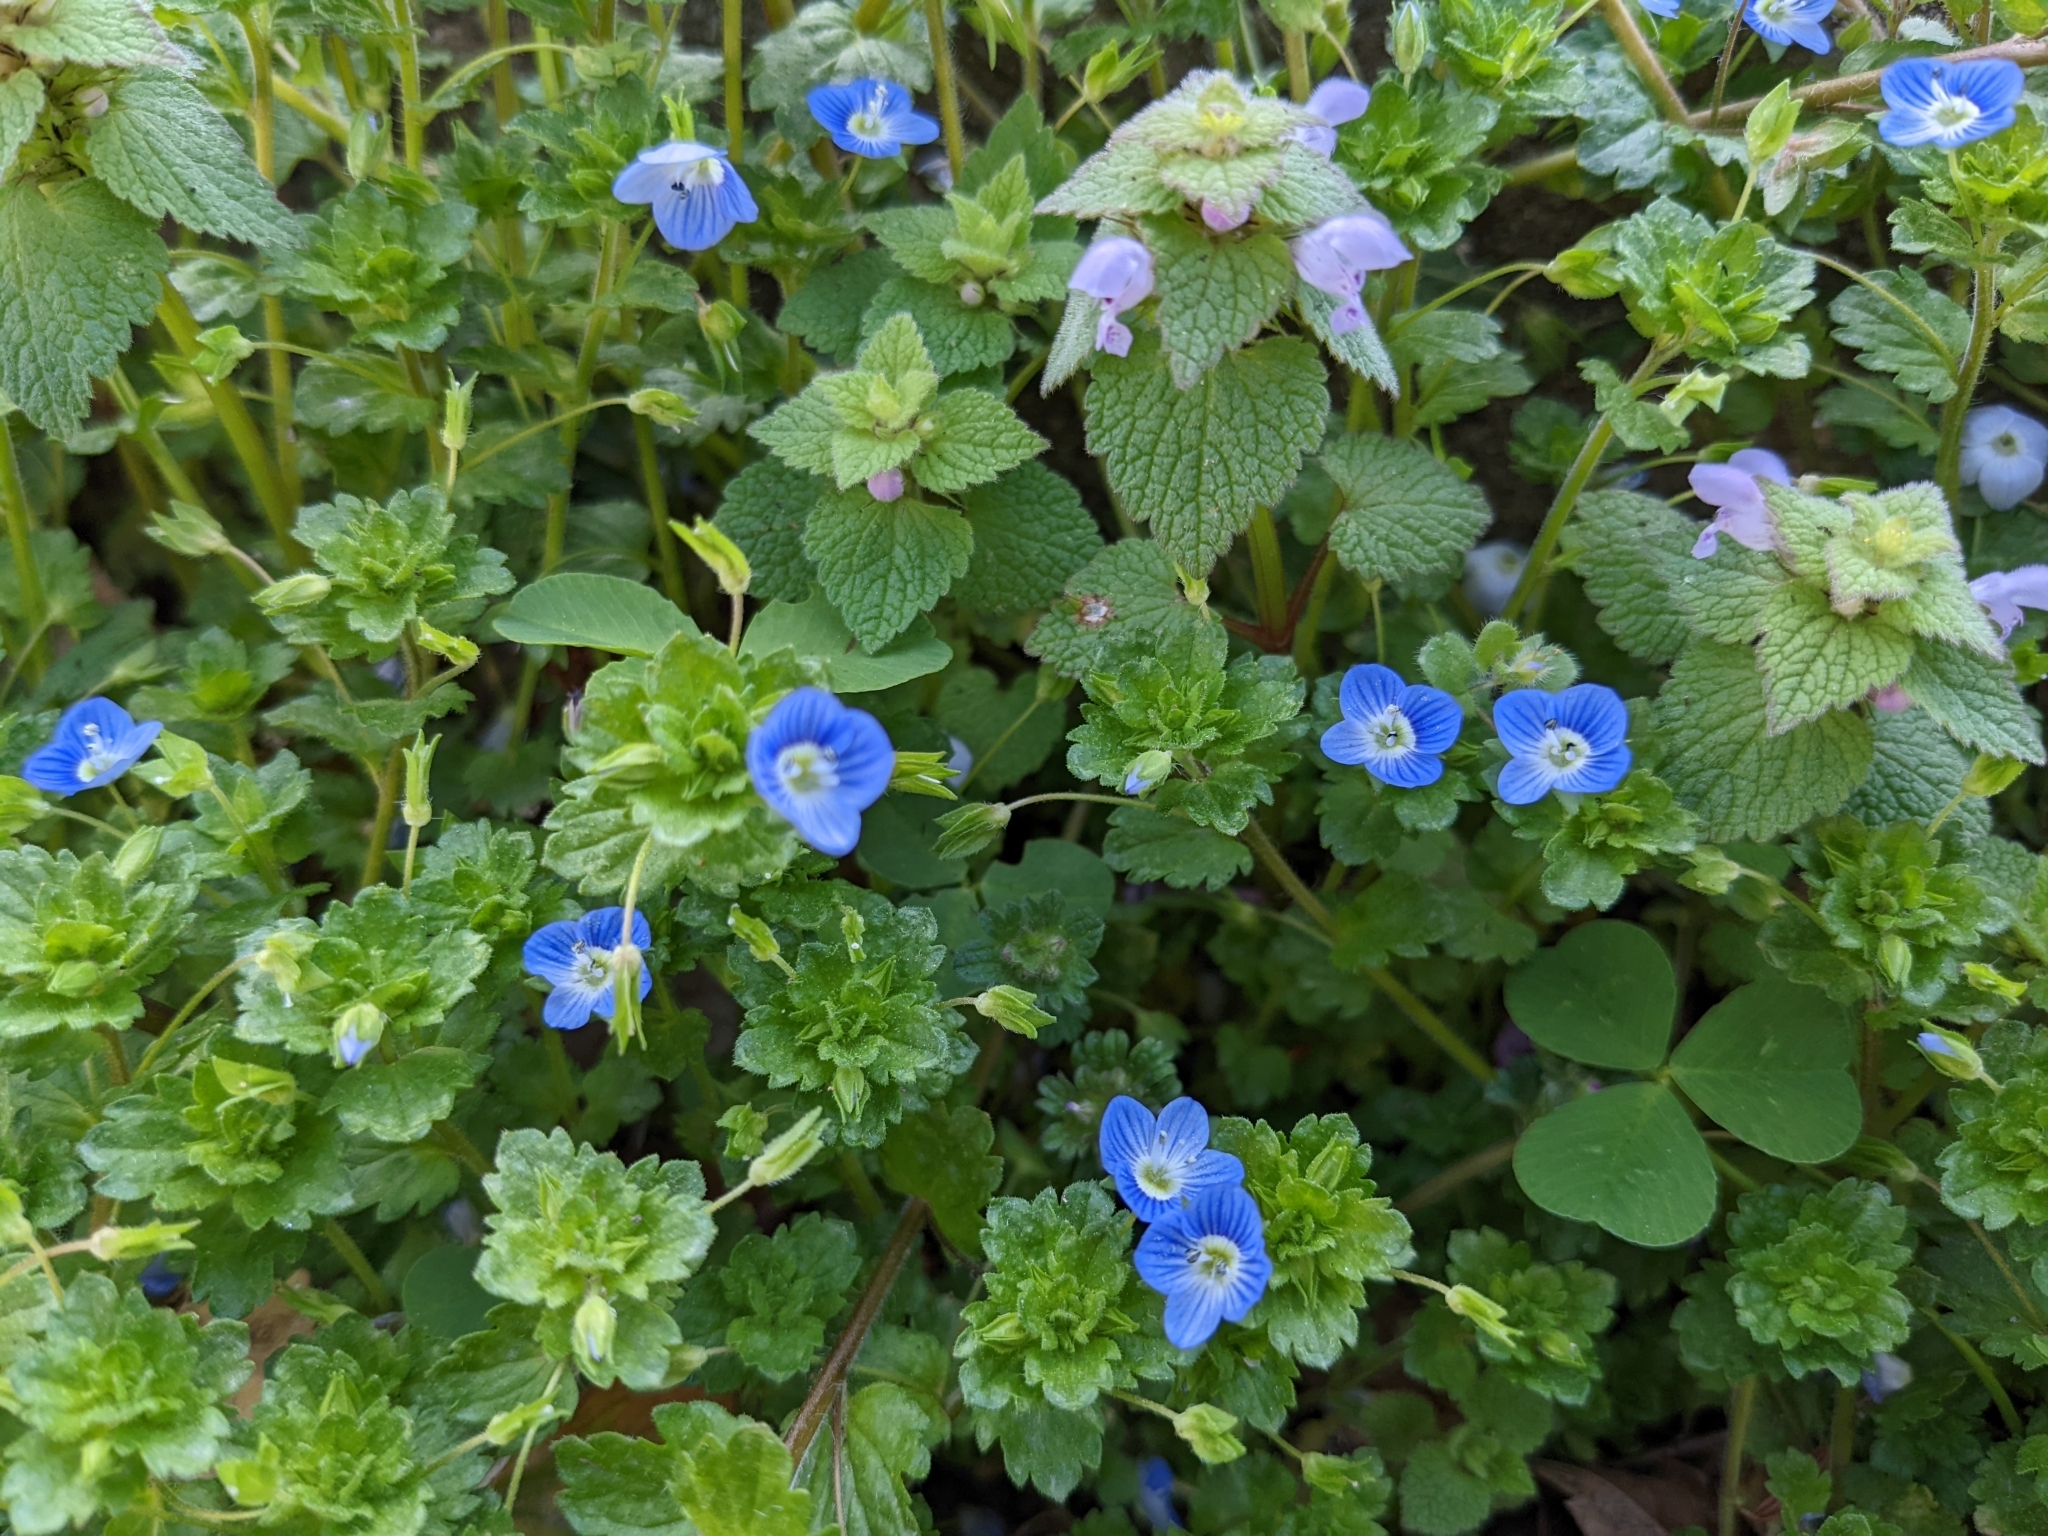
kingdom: Plantae
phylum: Tracheophyta
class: Magnoliopsida
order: Lamiales
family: Plantaginaceae
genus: Veronica
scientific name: Veronica persica
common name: Common field-speedwell
